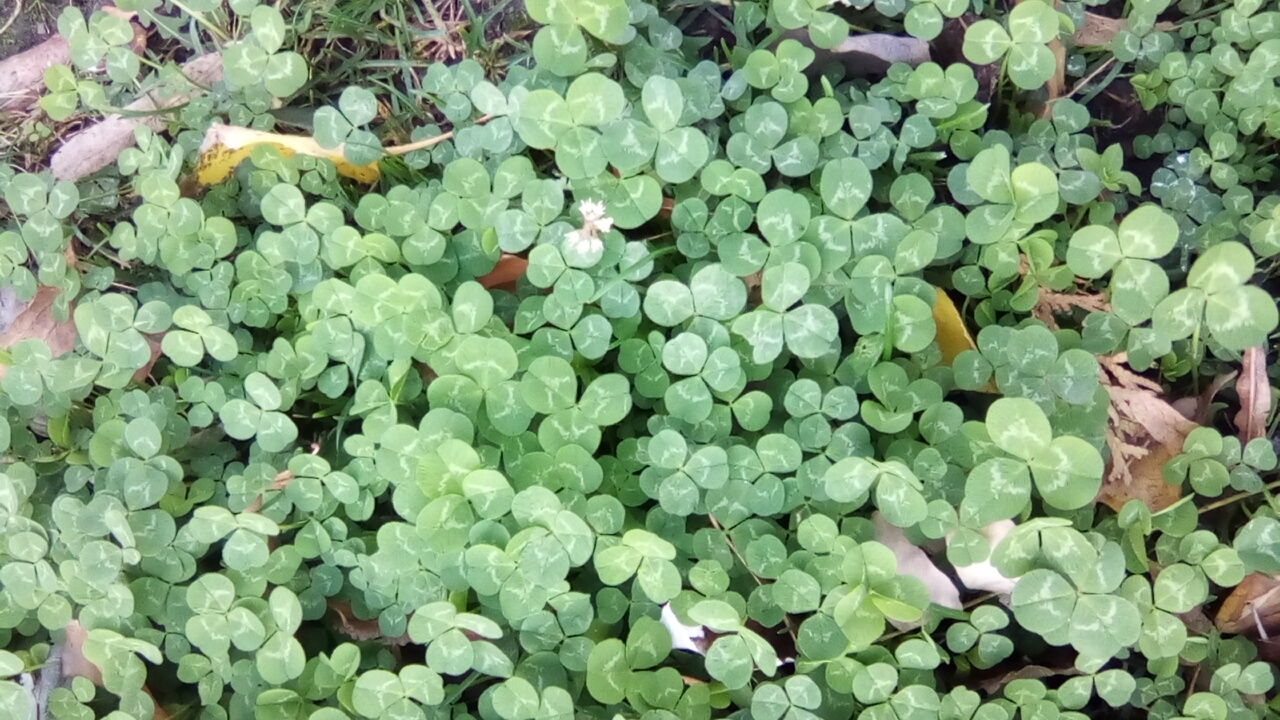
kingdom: Plantae
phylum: Tracheophyta
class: Magnoliopsida
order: Fabales
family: Fabaceae
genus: Trifolium
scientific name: Trifolium repens
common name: White clover
